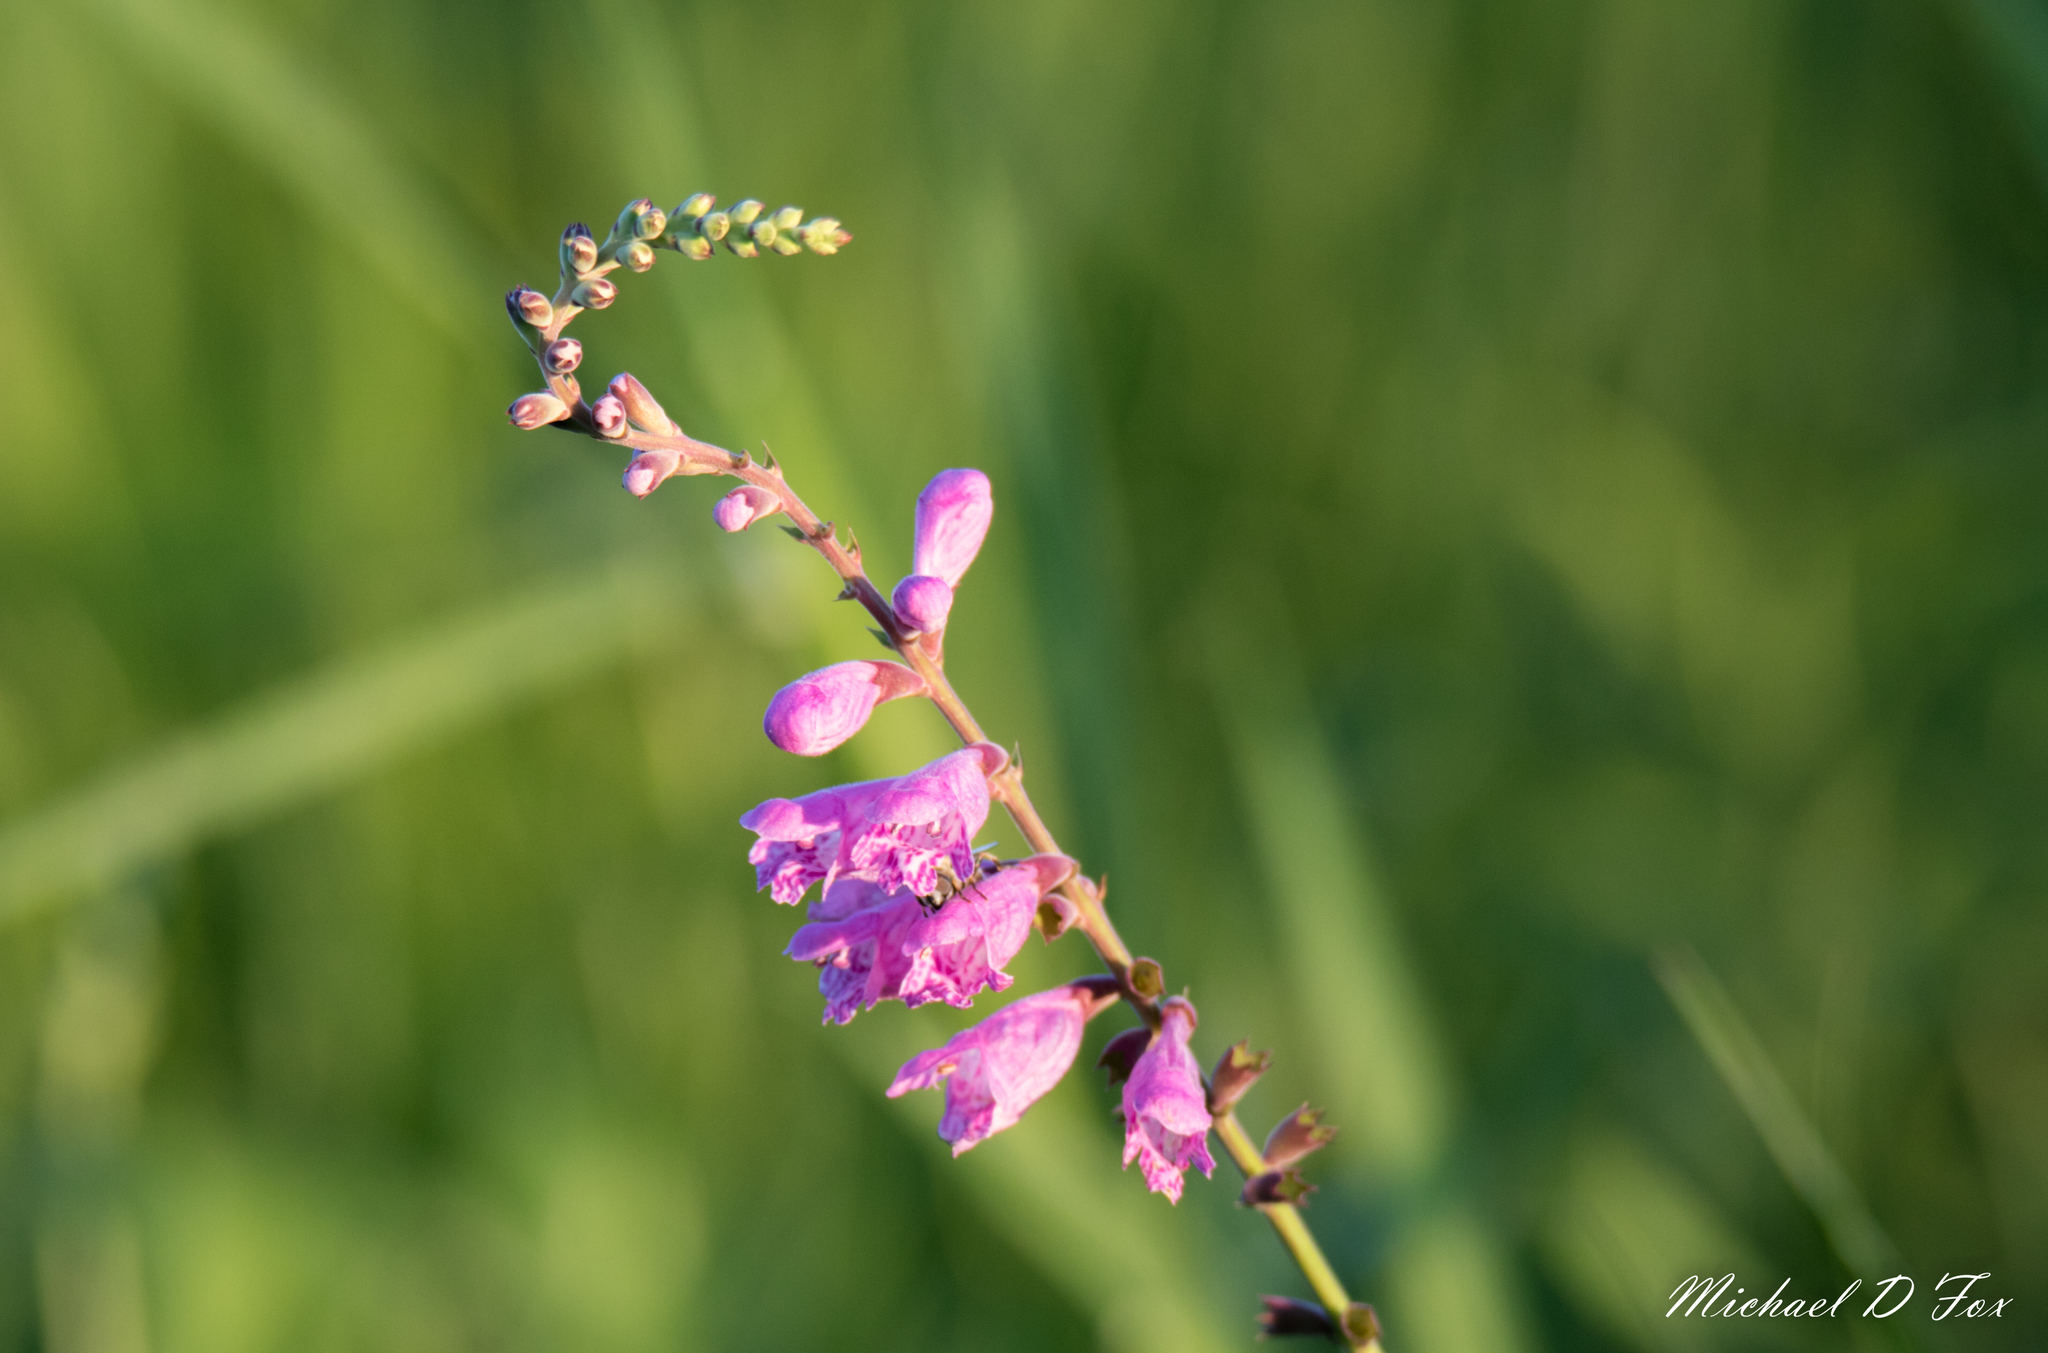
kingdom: Plantae
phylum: Tracheophyta
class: Magnoliopsida
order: Lamiales
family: Lamiaceae
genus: Physostegia
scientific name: Physostegia virginiana
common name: Obedient-plant
